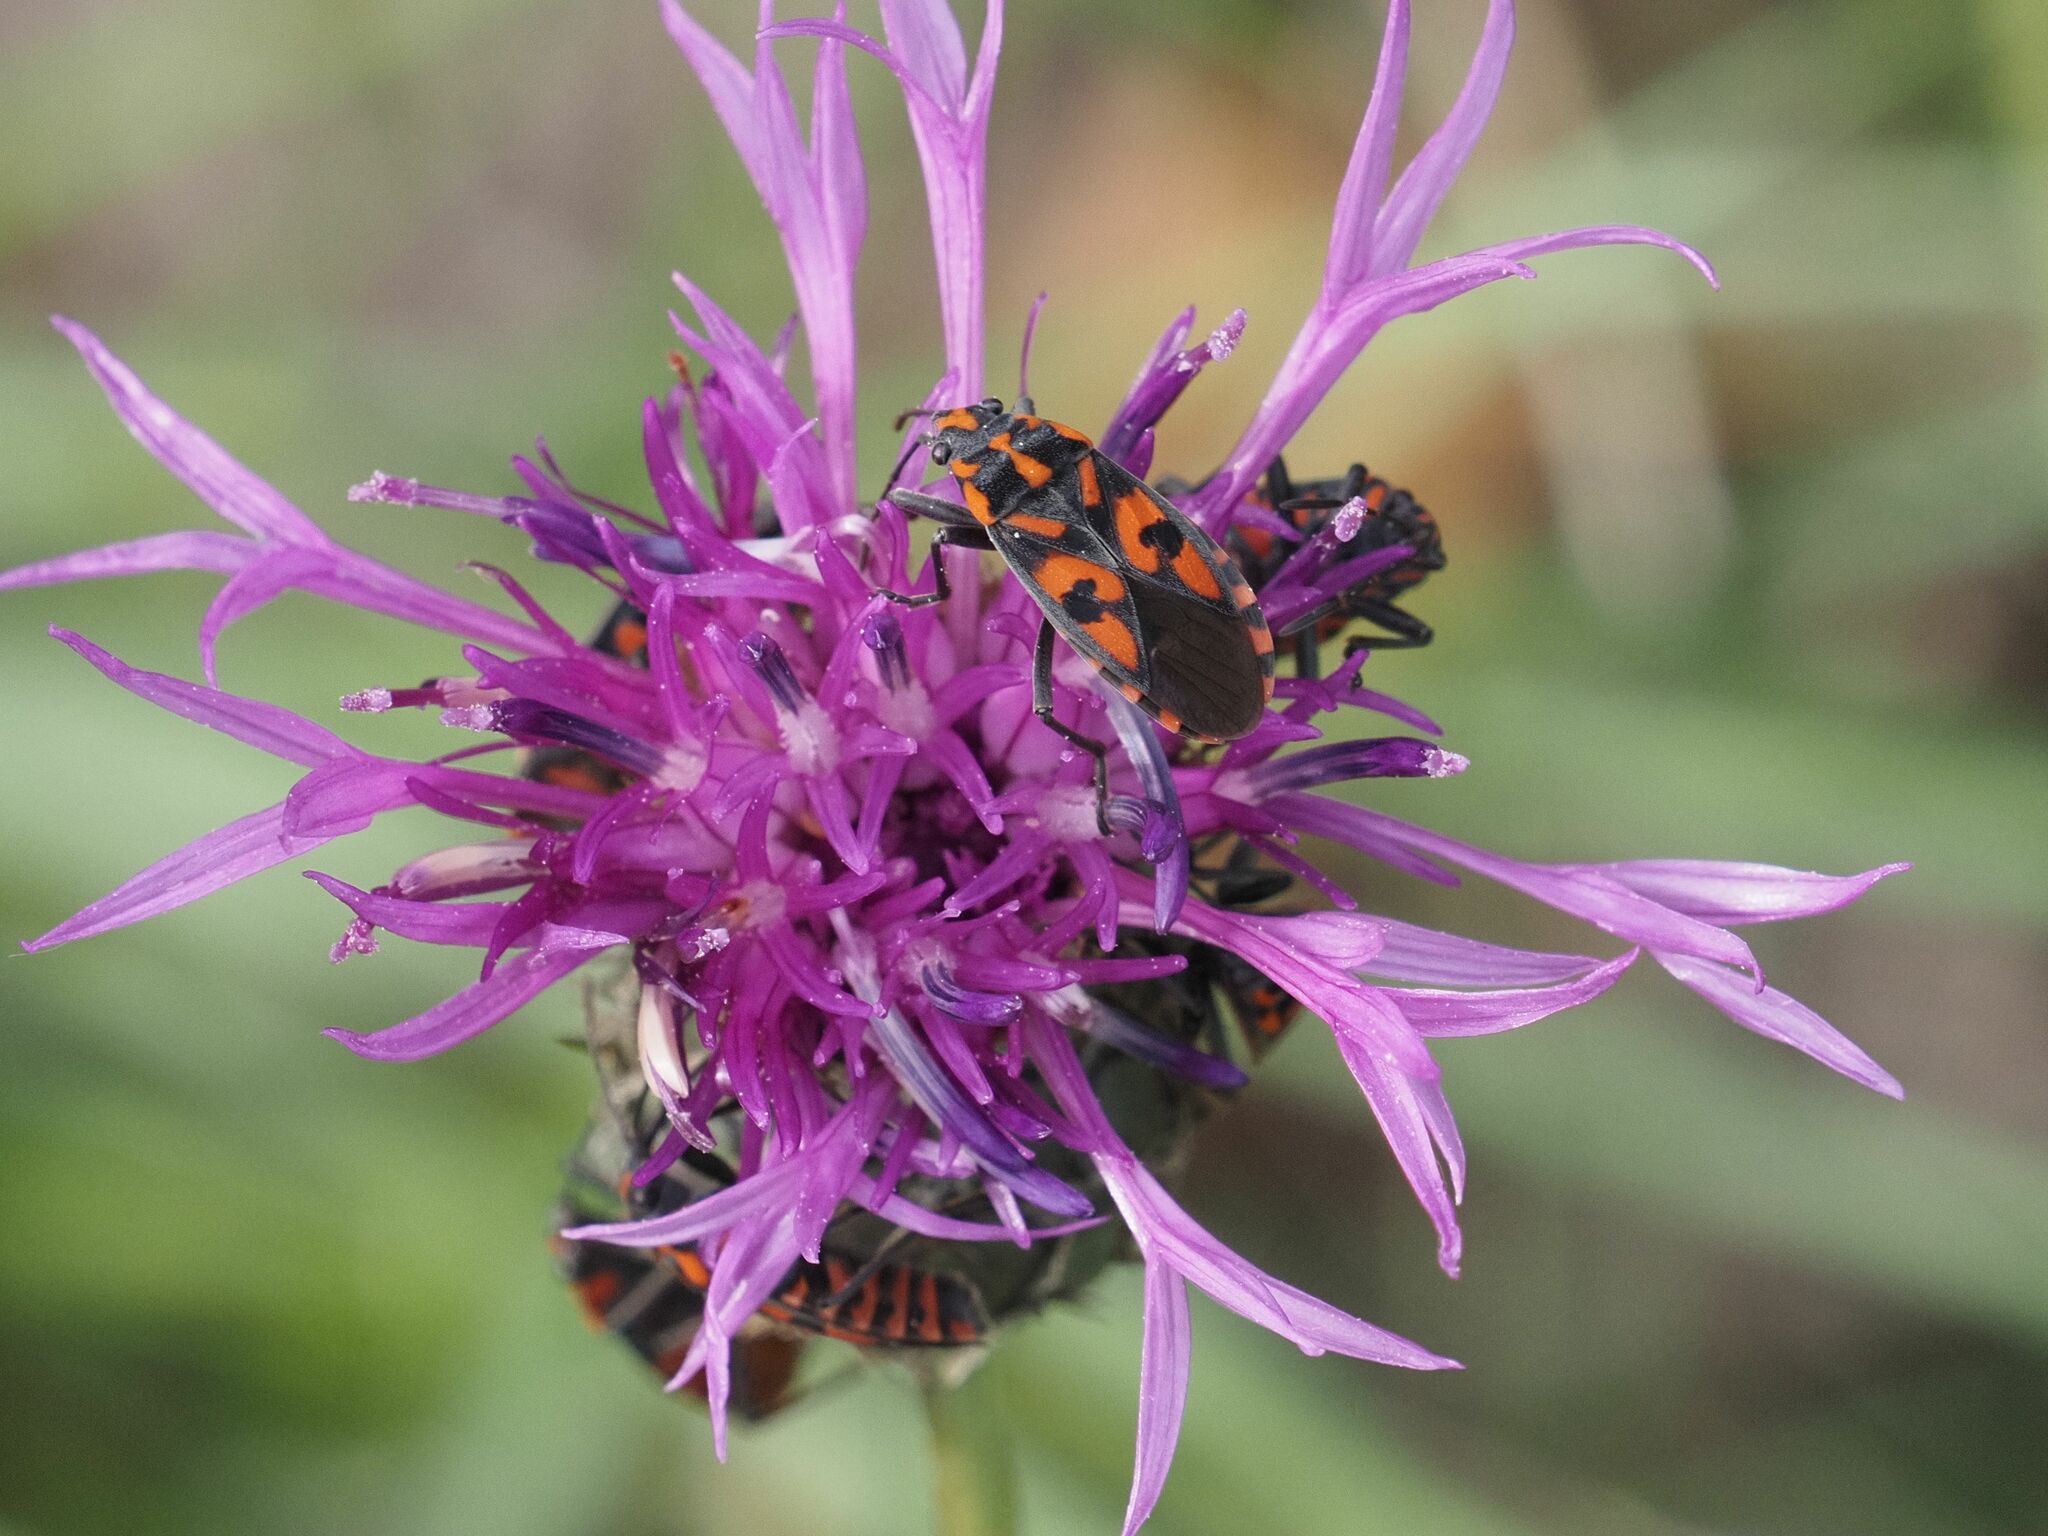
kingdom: Animalia
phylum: Arthropoda
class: Insecta
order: Hemiptera
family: Lygaeidae
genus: Spilostethus
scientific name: Spilostethus saxatilis
